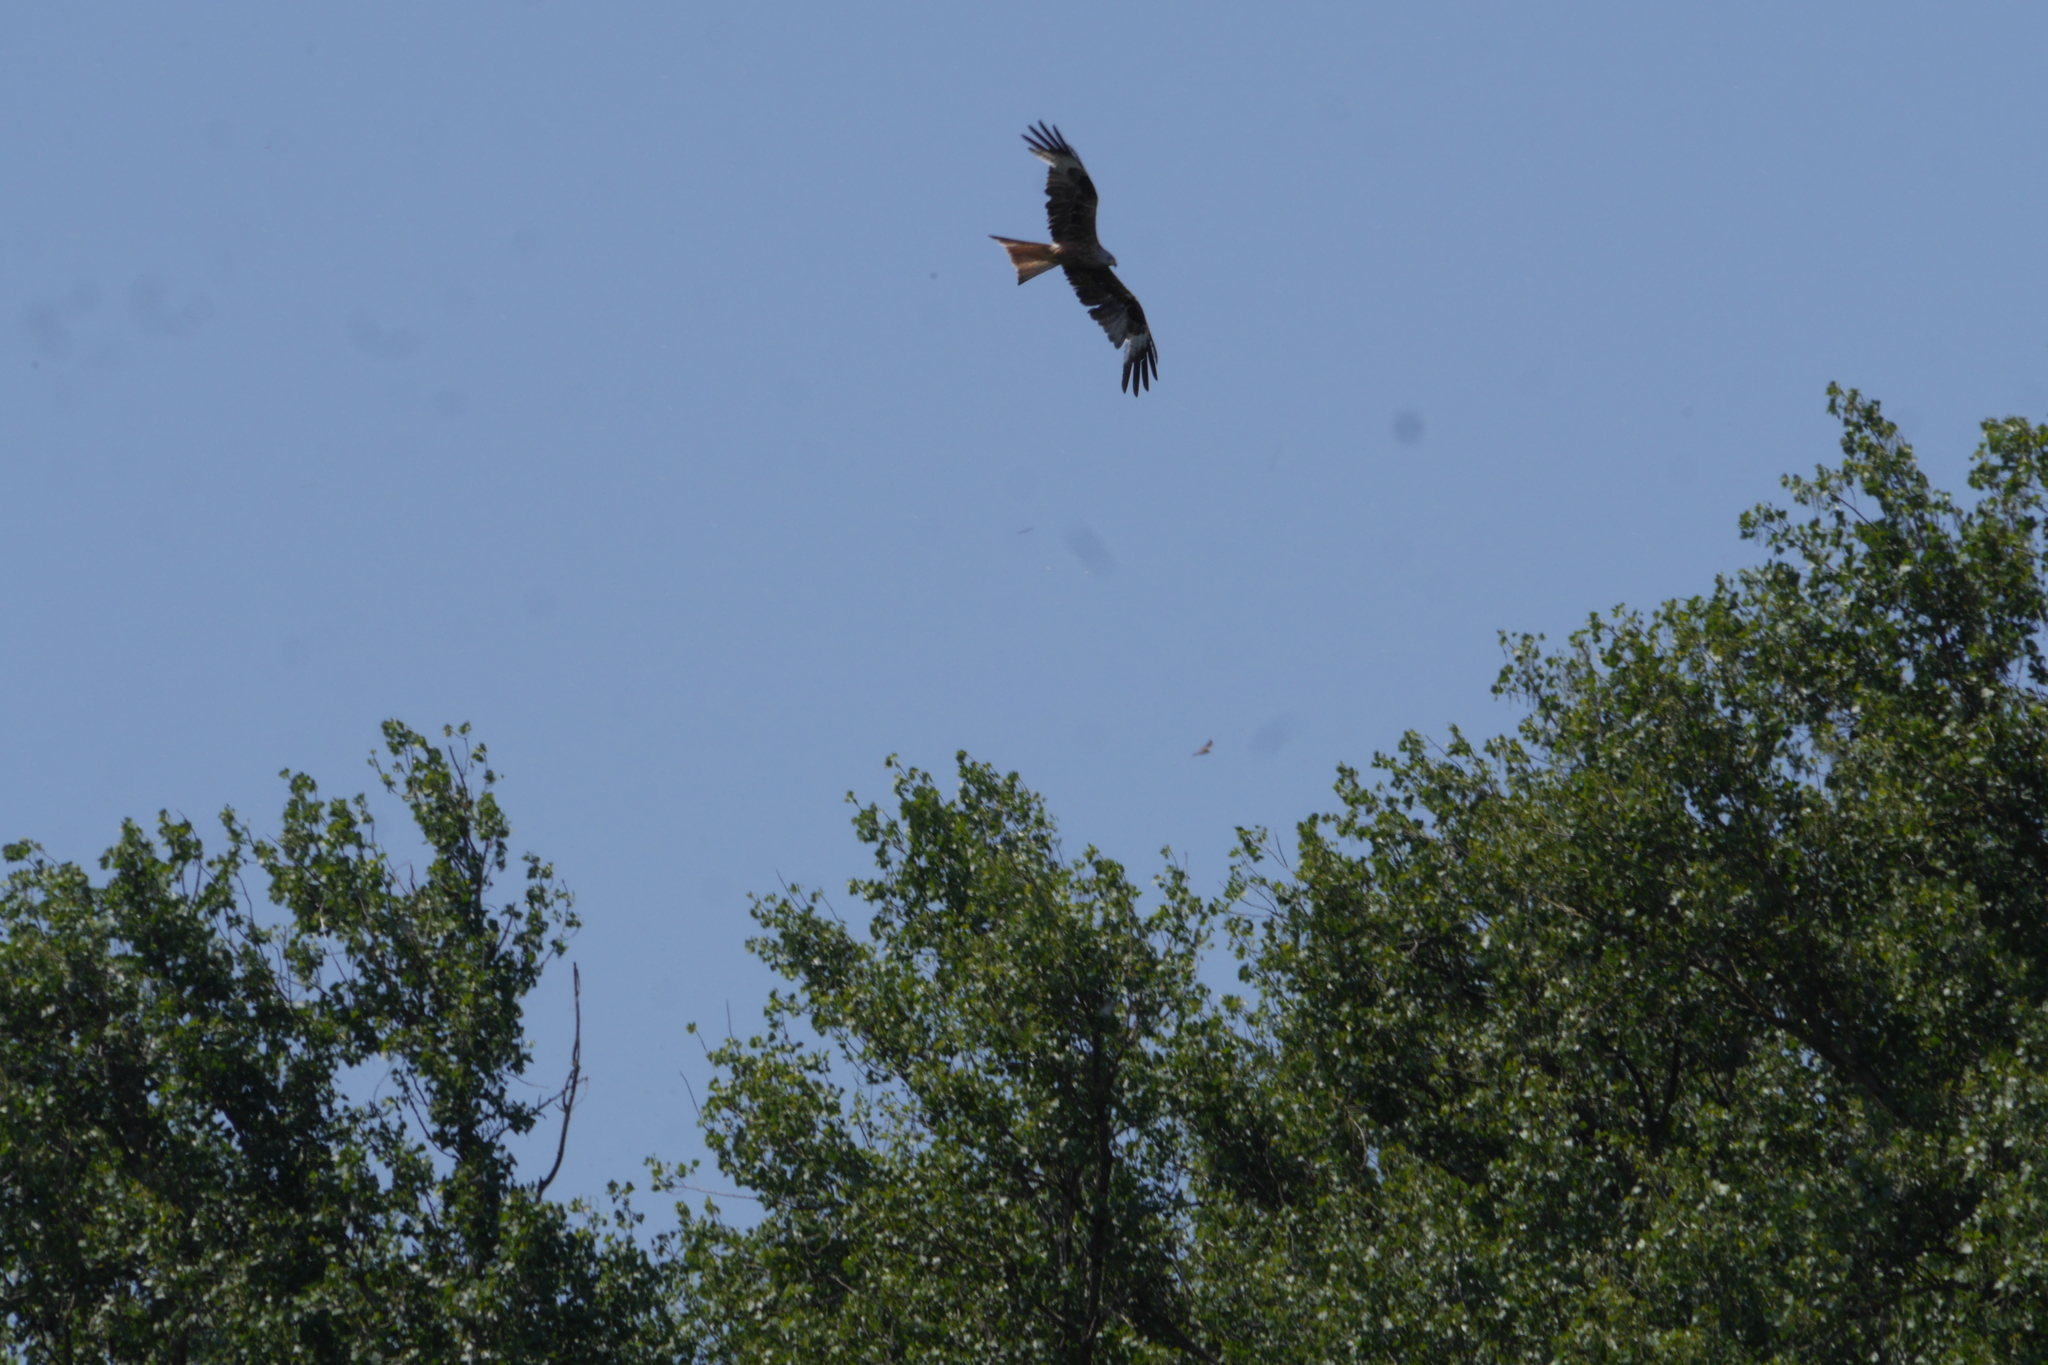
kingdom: Animalia
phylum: Chordata
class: Aves
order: Accipitriformes
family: Accipitridae
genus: Milvus
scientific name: Milvus milvus
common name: Red kite
